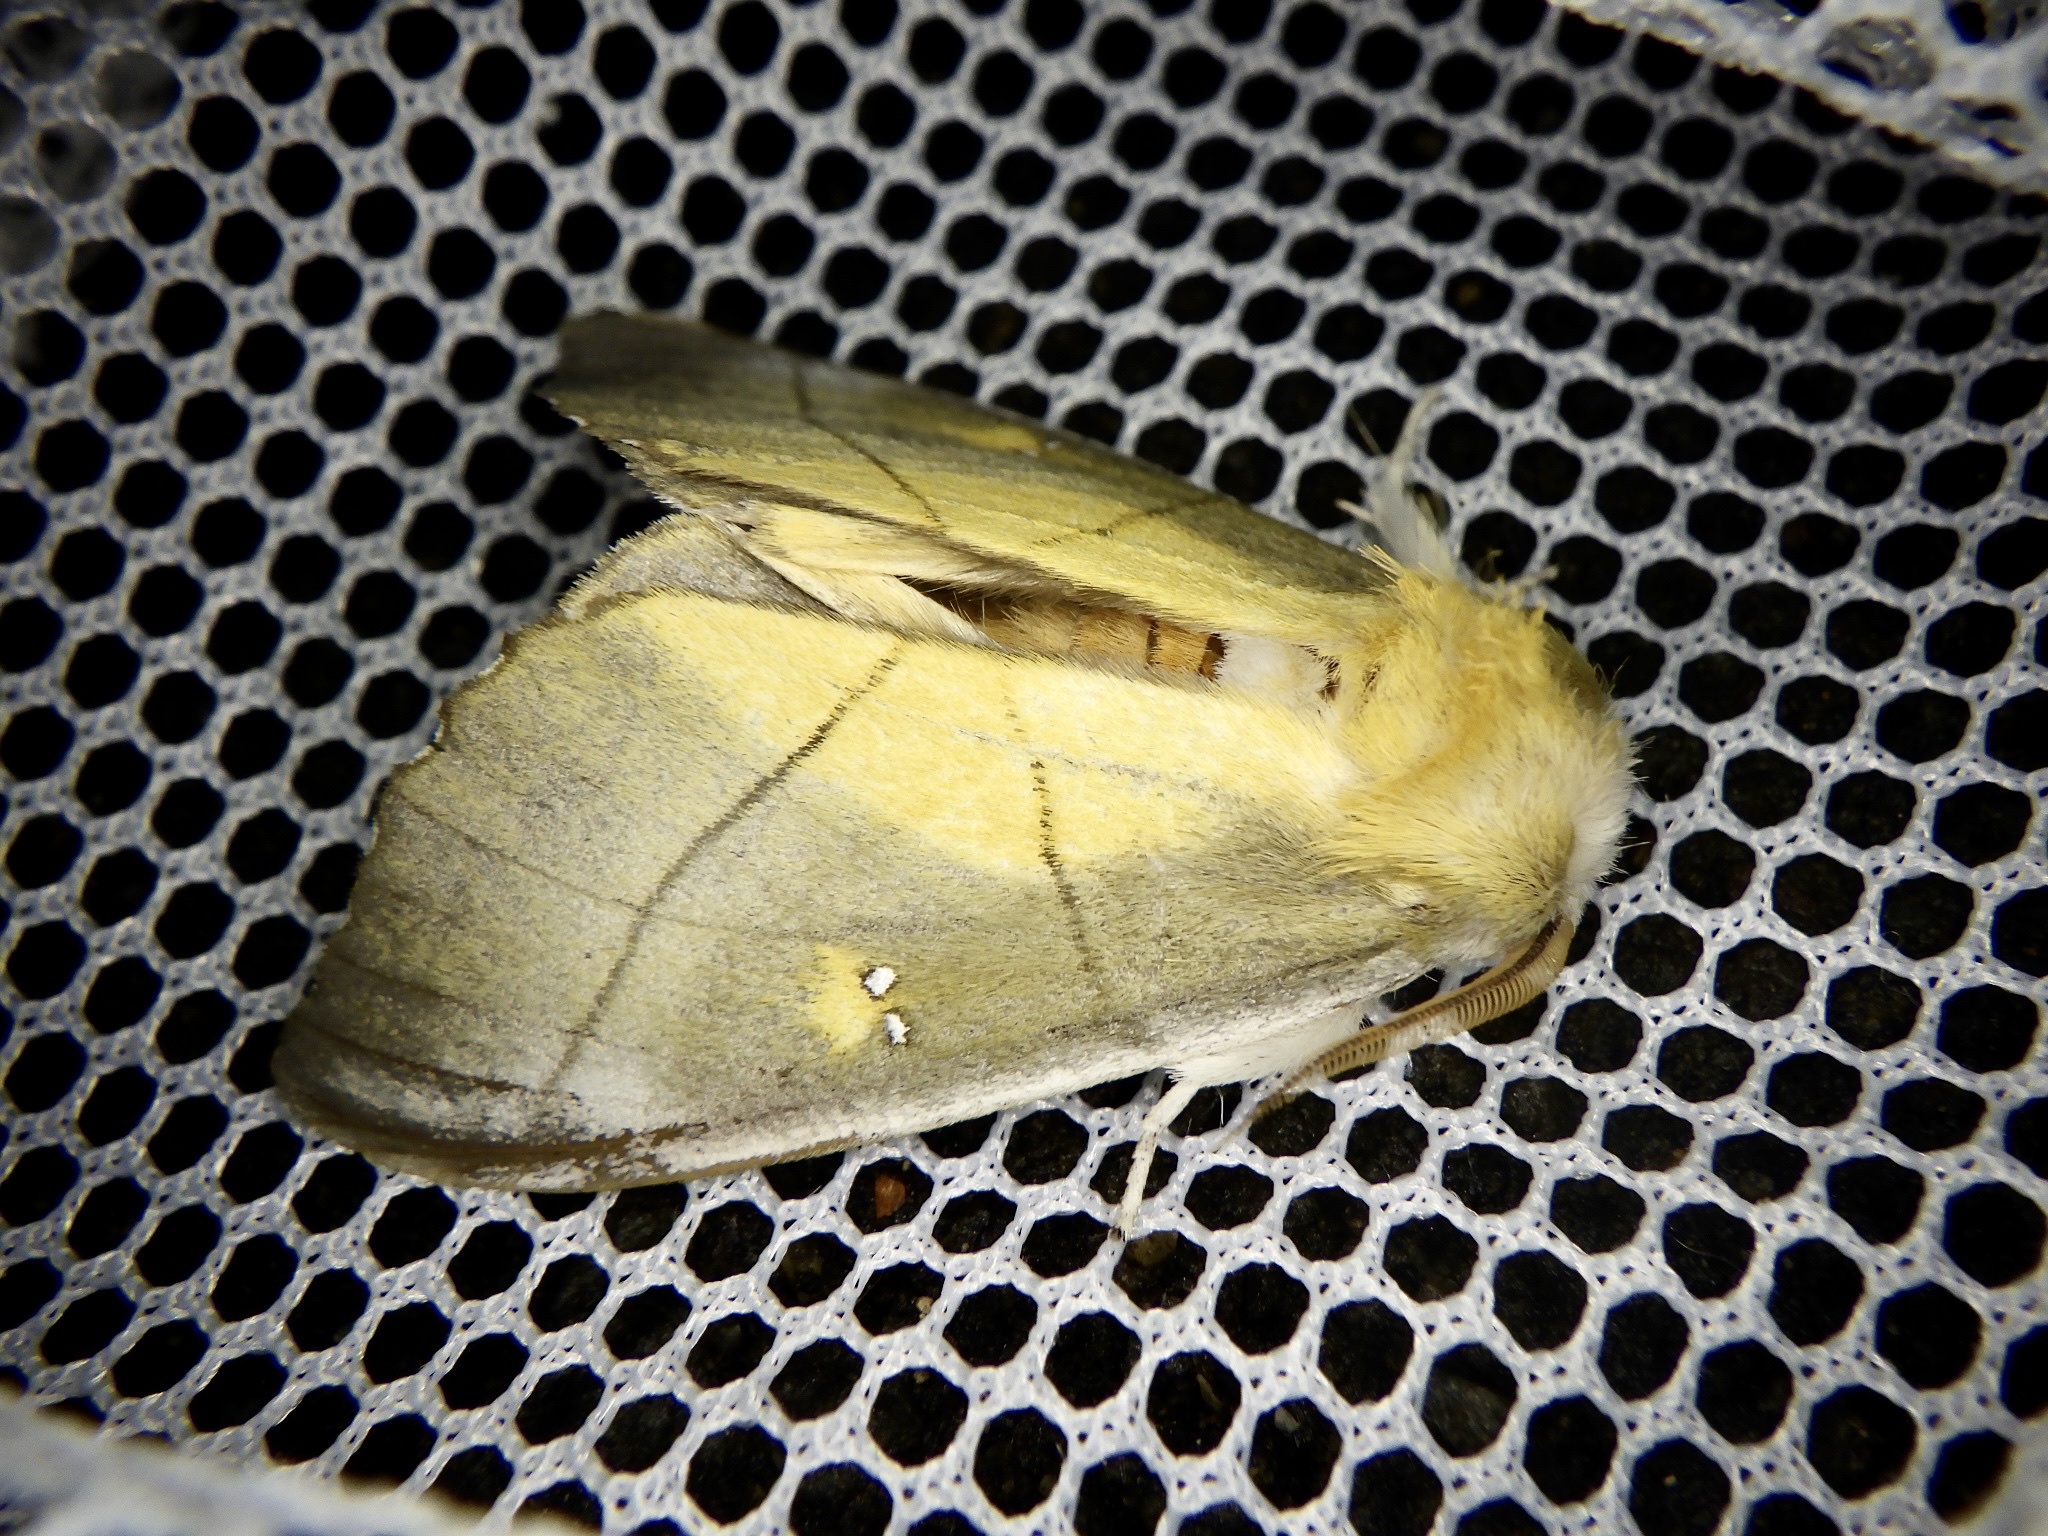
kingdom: Animalia
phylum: Arthropoda
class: Insecta
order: Lepidoptera
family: Notodontidae
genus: Euhampsonia
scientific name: Euhampsonia splendida
